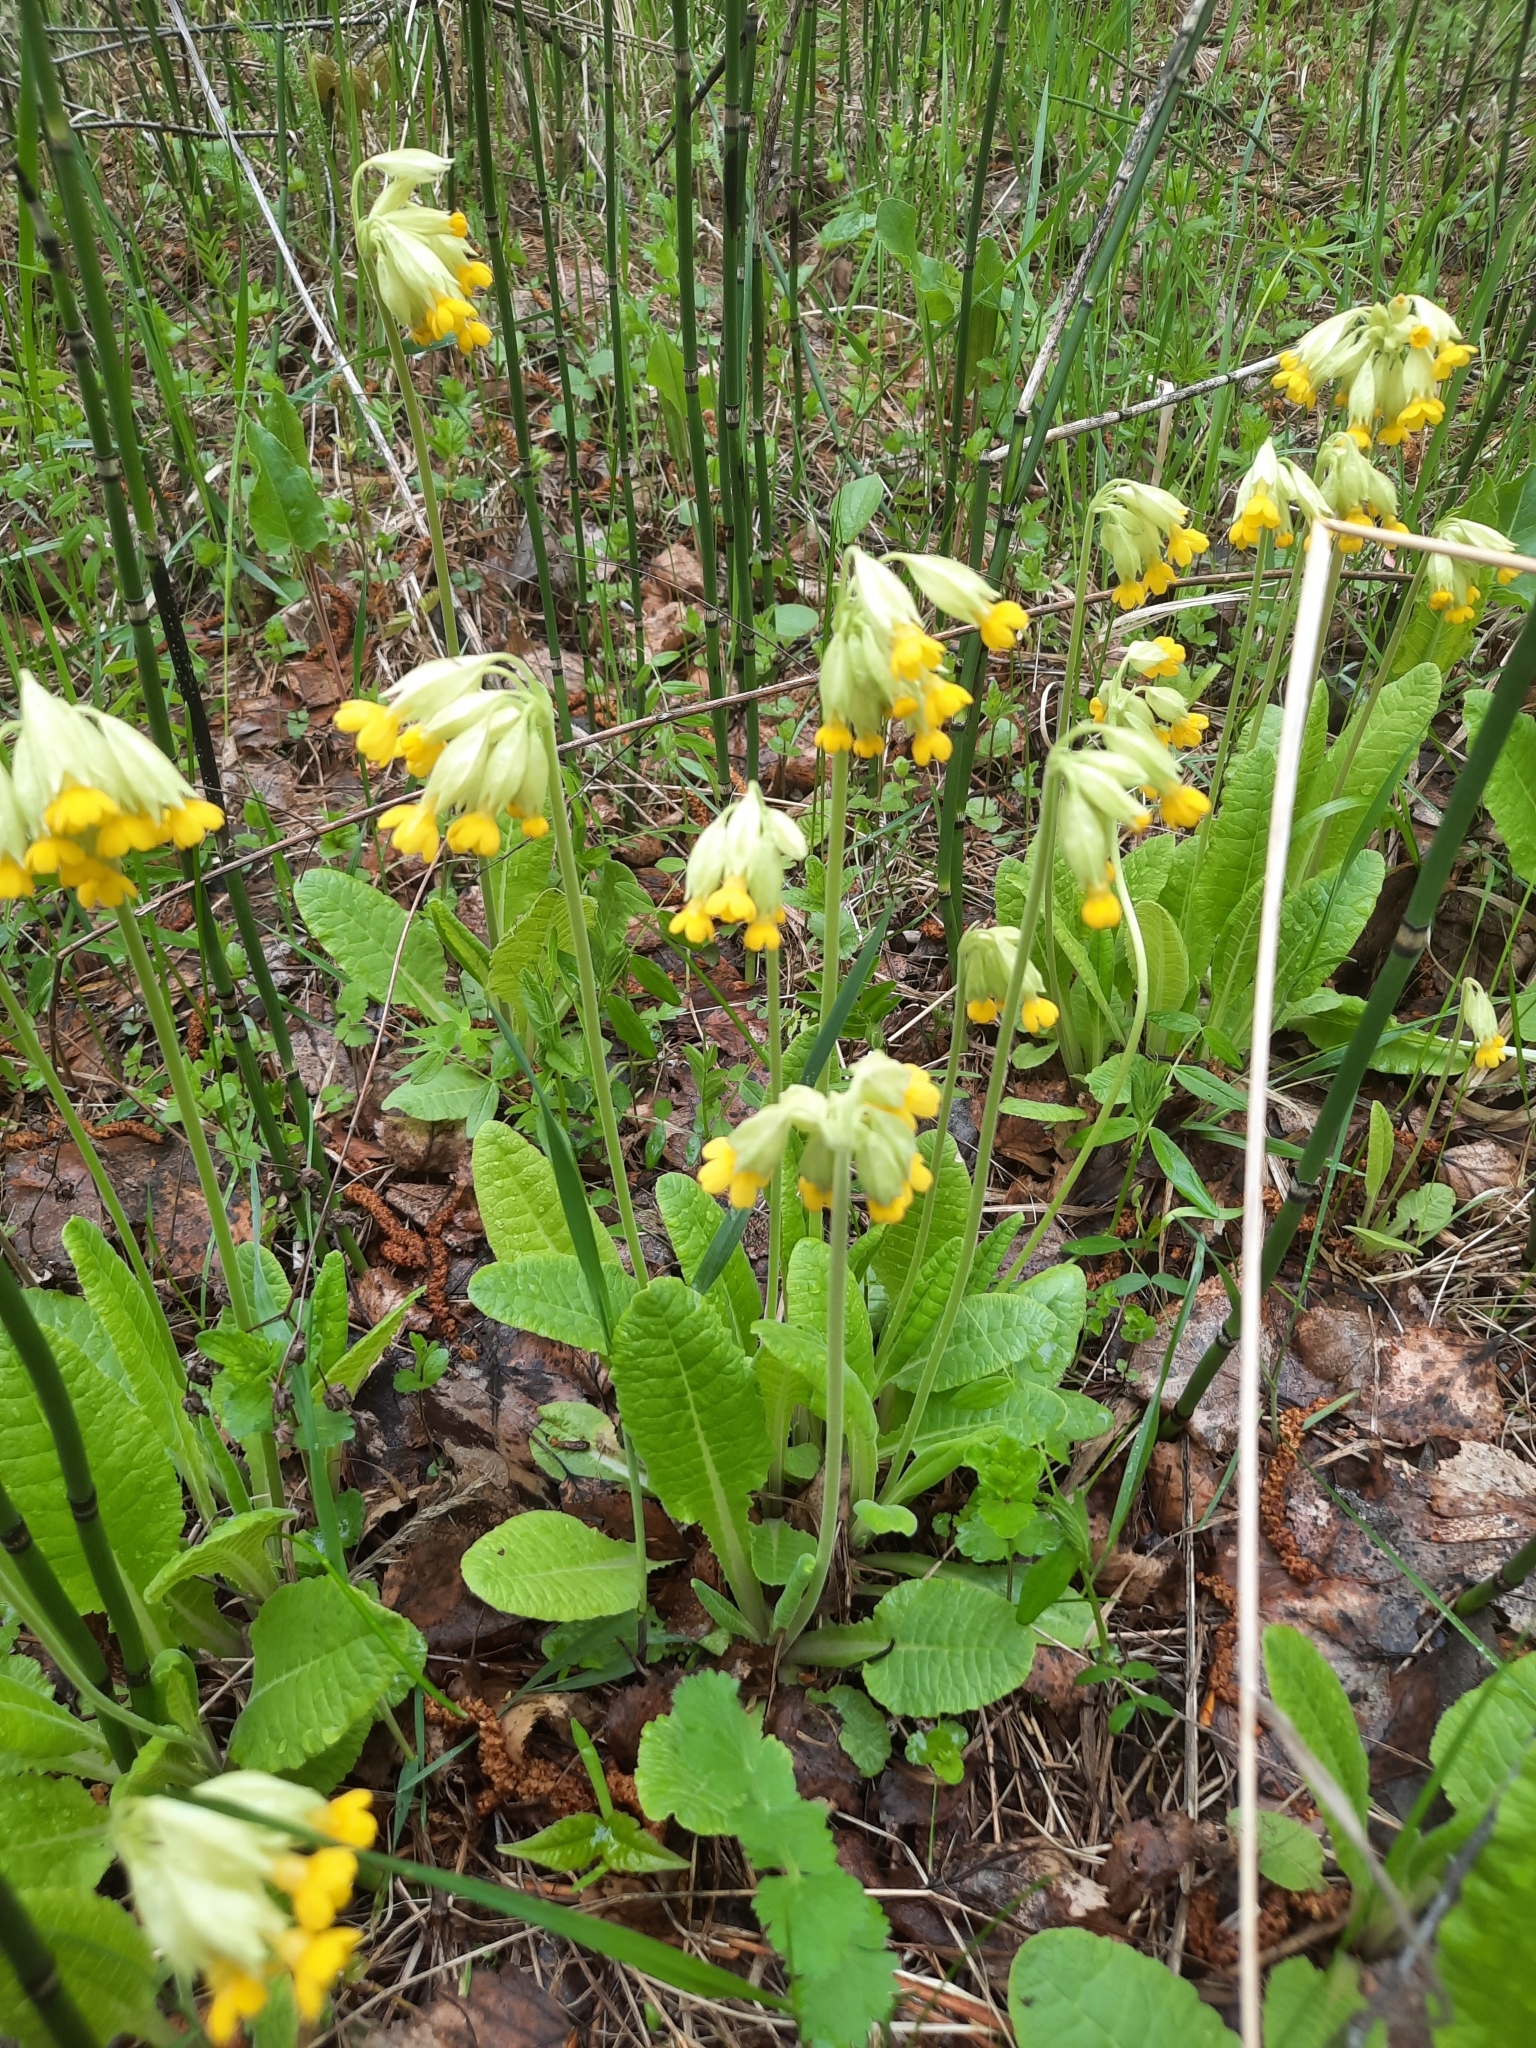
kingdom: Plantae
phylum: Tracheophyta
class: Magnoliopsida
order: Ericales
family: Primulaceae
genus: Primula
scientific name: Primula veris
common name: Cowslip
